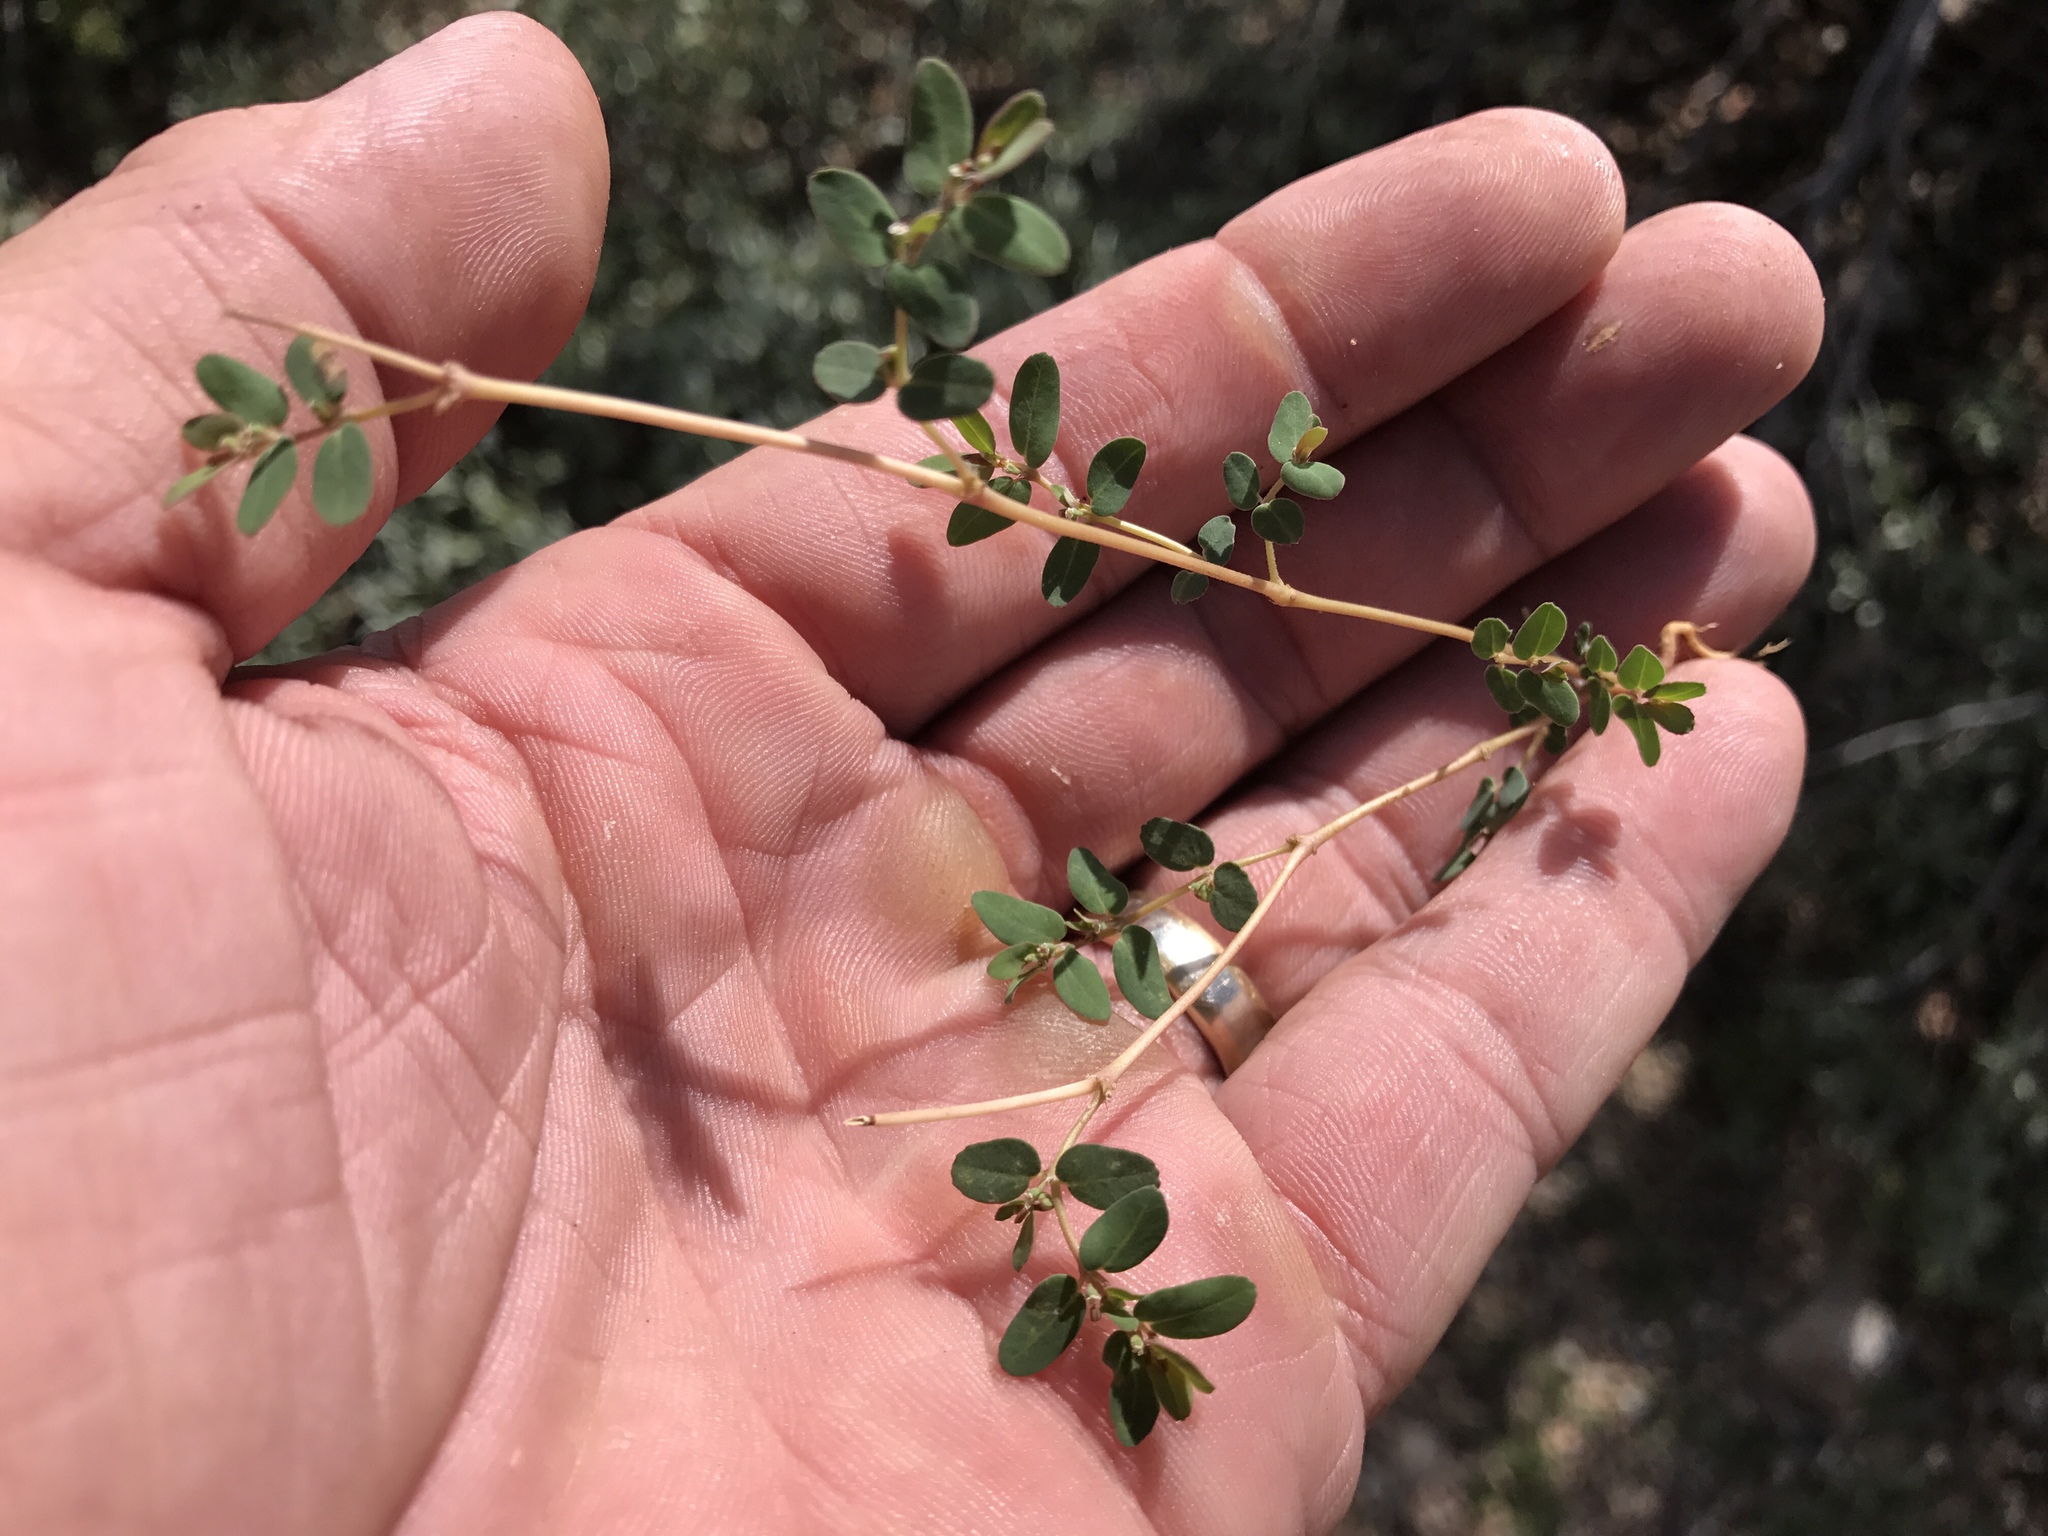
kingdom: Plantae
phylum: Tracheophyta
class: Magnoliopsida
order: Malpighiales
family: Euphorbiaceae
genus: Euphorbia
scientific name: Euphorbia abramsiana
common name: Abram's spurge
